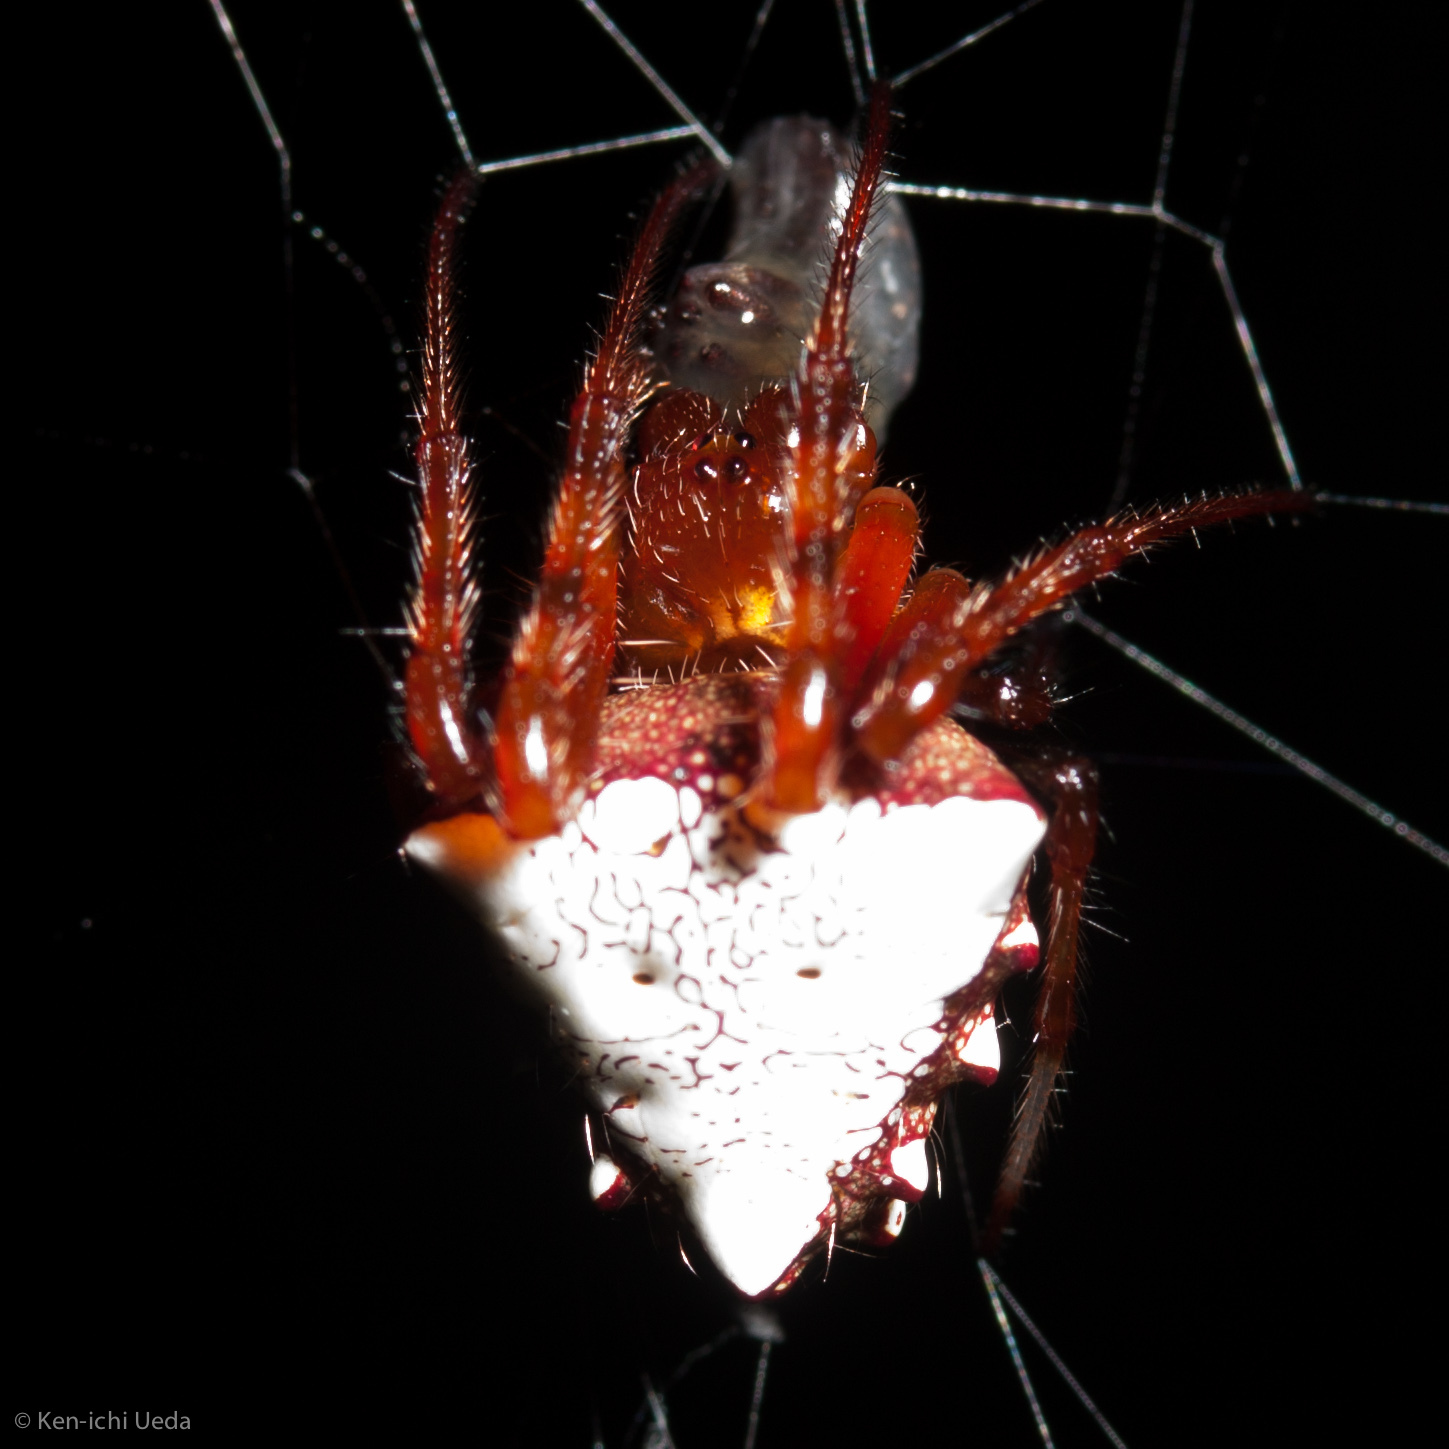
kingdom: Animalia
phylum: Arthropoda
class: Arachnida
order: Araneae
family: Araneidae
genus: Verrucosa
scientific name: Verrucosa arenata
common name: Orb weavers
